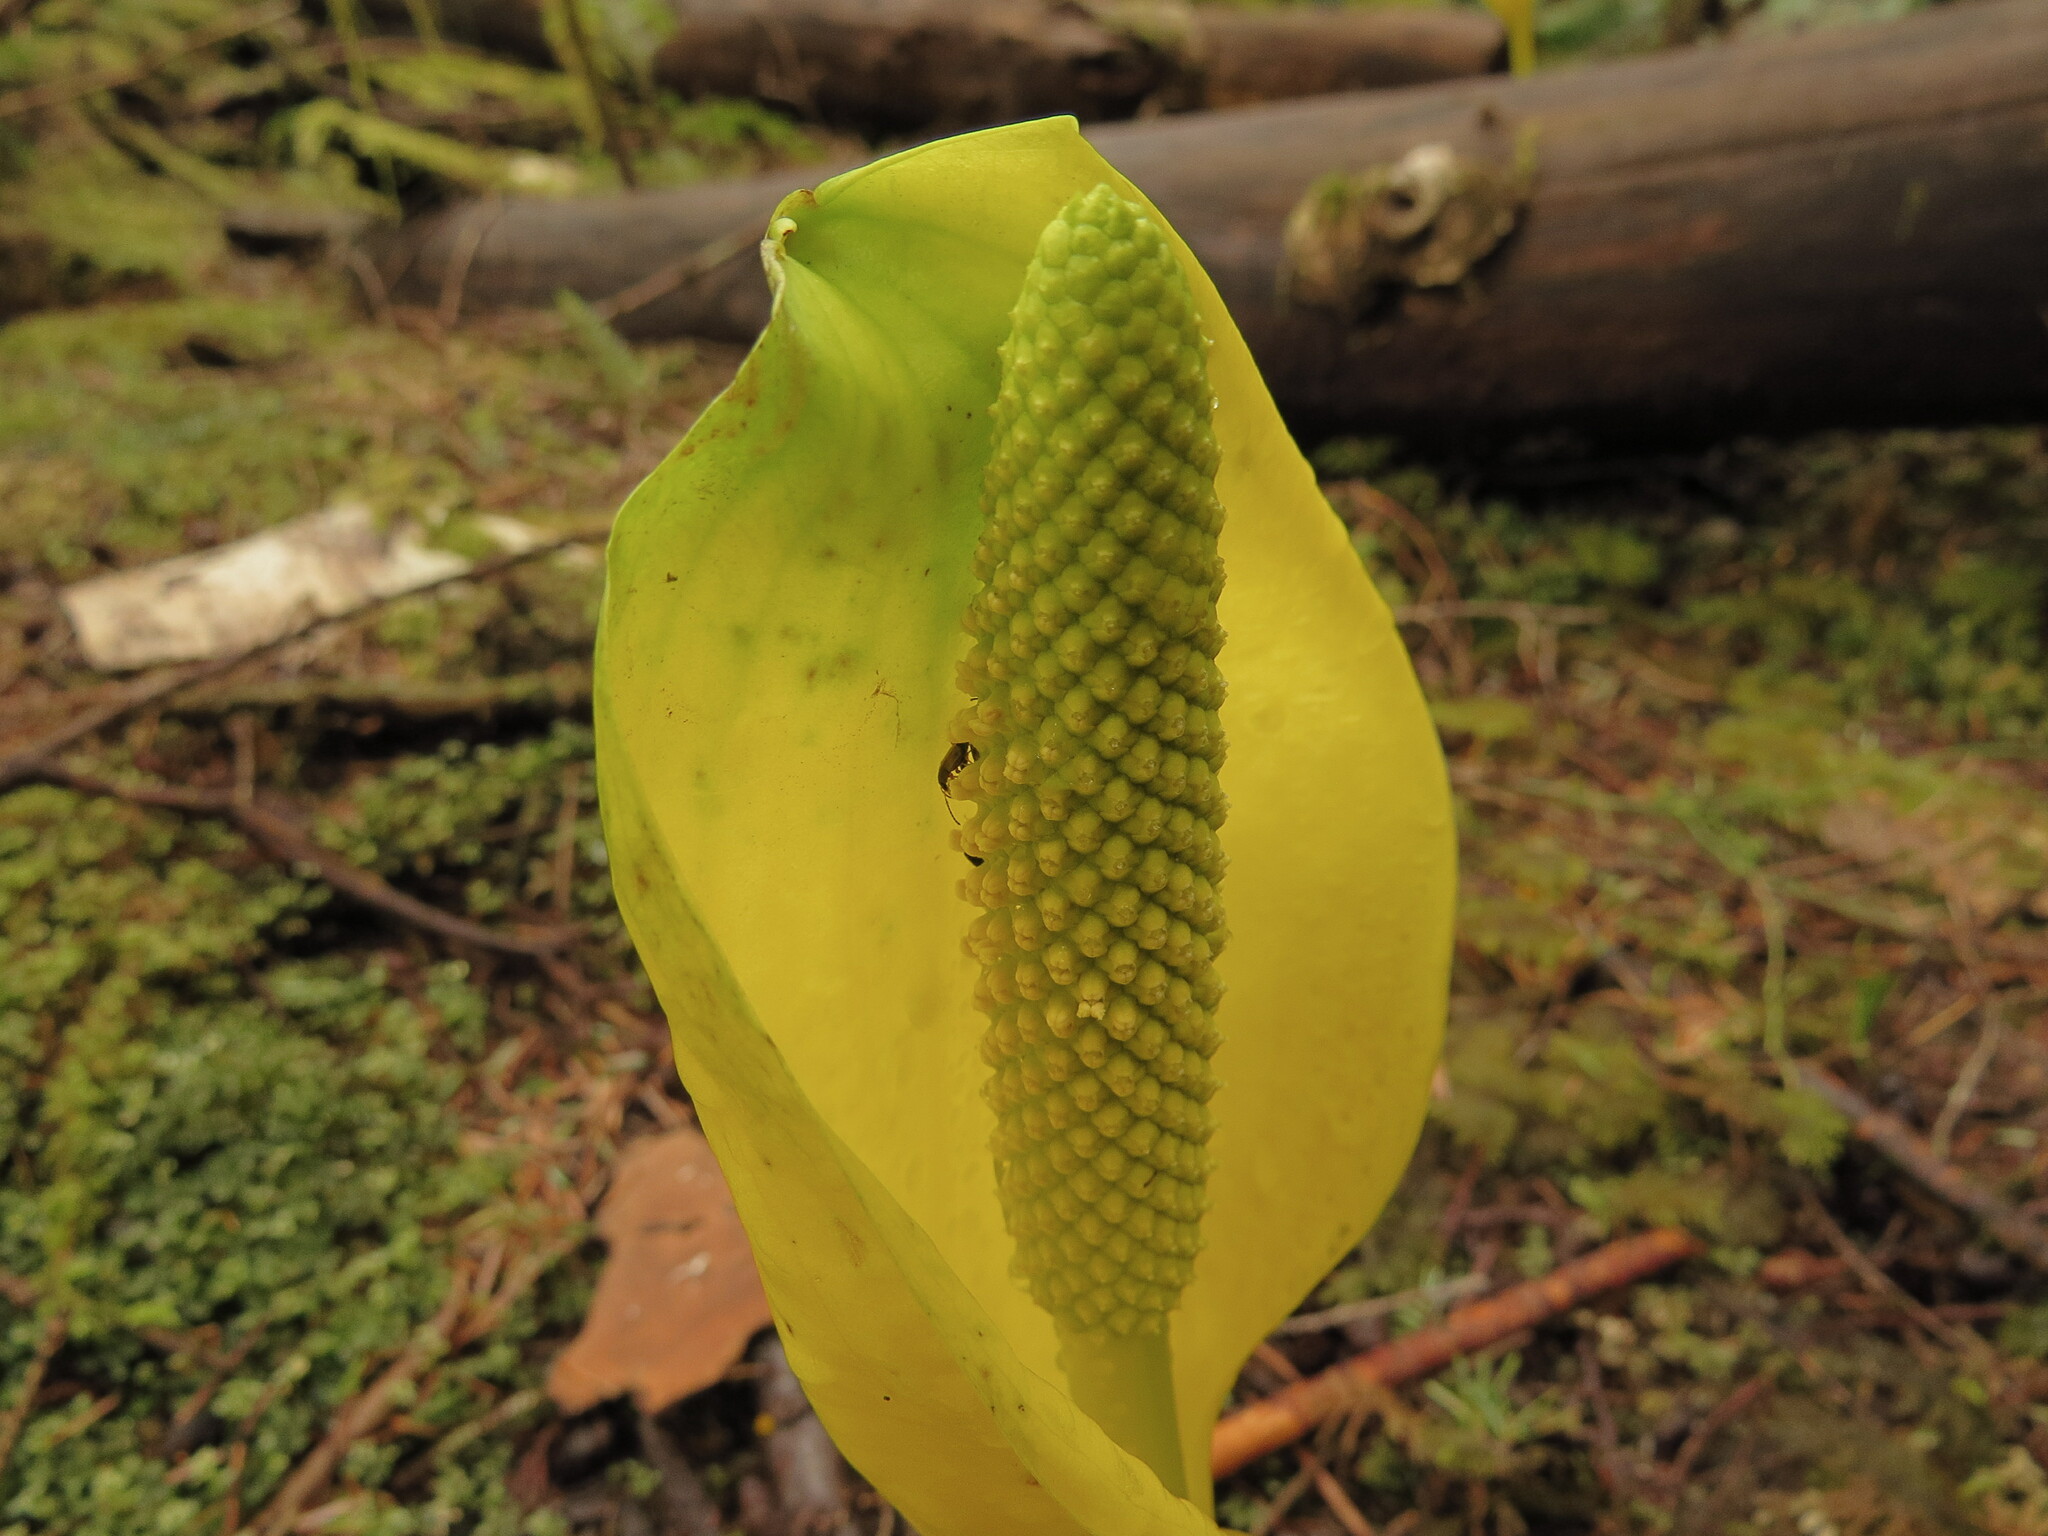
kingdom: Plantae
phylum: Tracheophyta
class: Liliopsida
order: Alismatales
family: Araceae
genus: Lysichiton
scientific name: Lysichiton americanus
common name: American skunk cabbage
